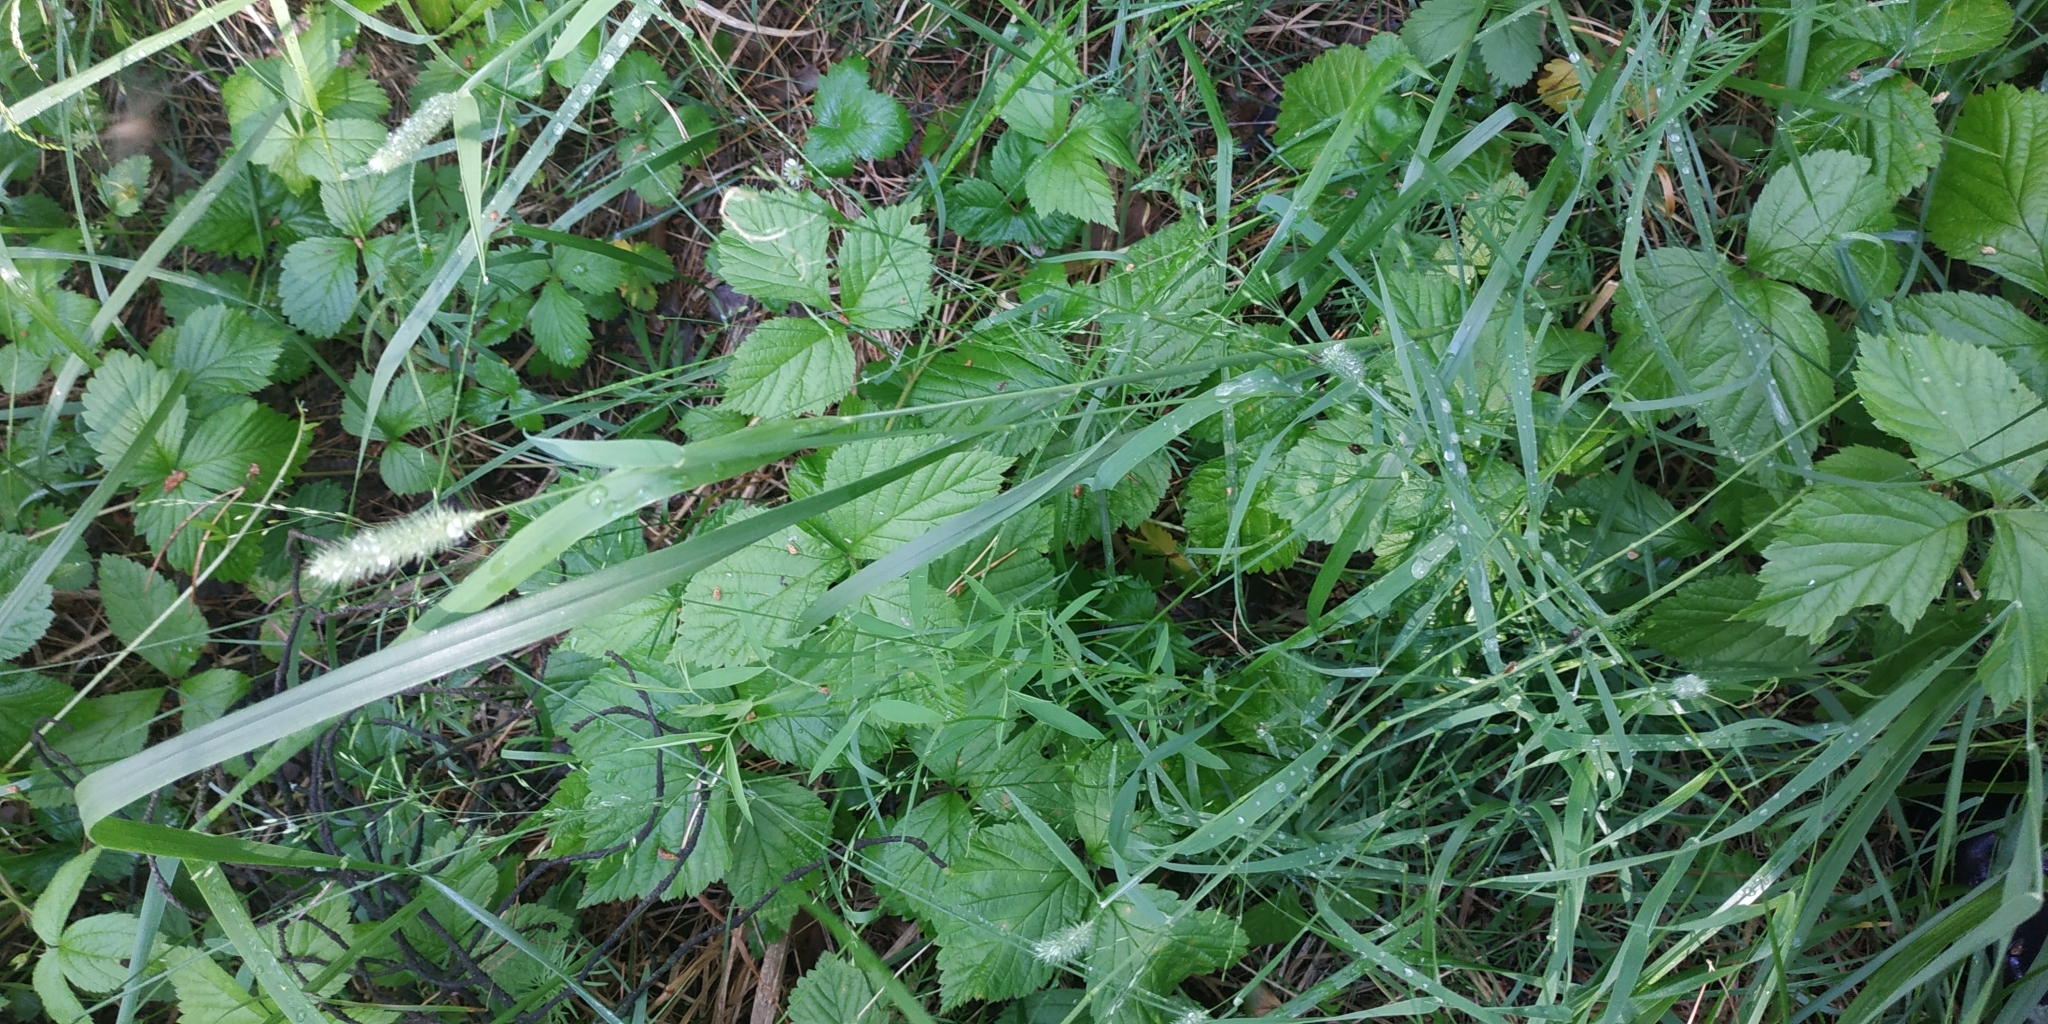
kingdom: Plantae
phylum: Tracheophyta
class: Liliopsida
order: Poales
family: Poaceae
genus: Phleum
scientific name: Phleum pratense
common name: Timothy grass
